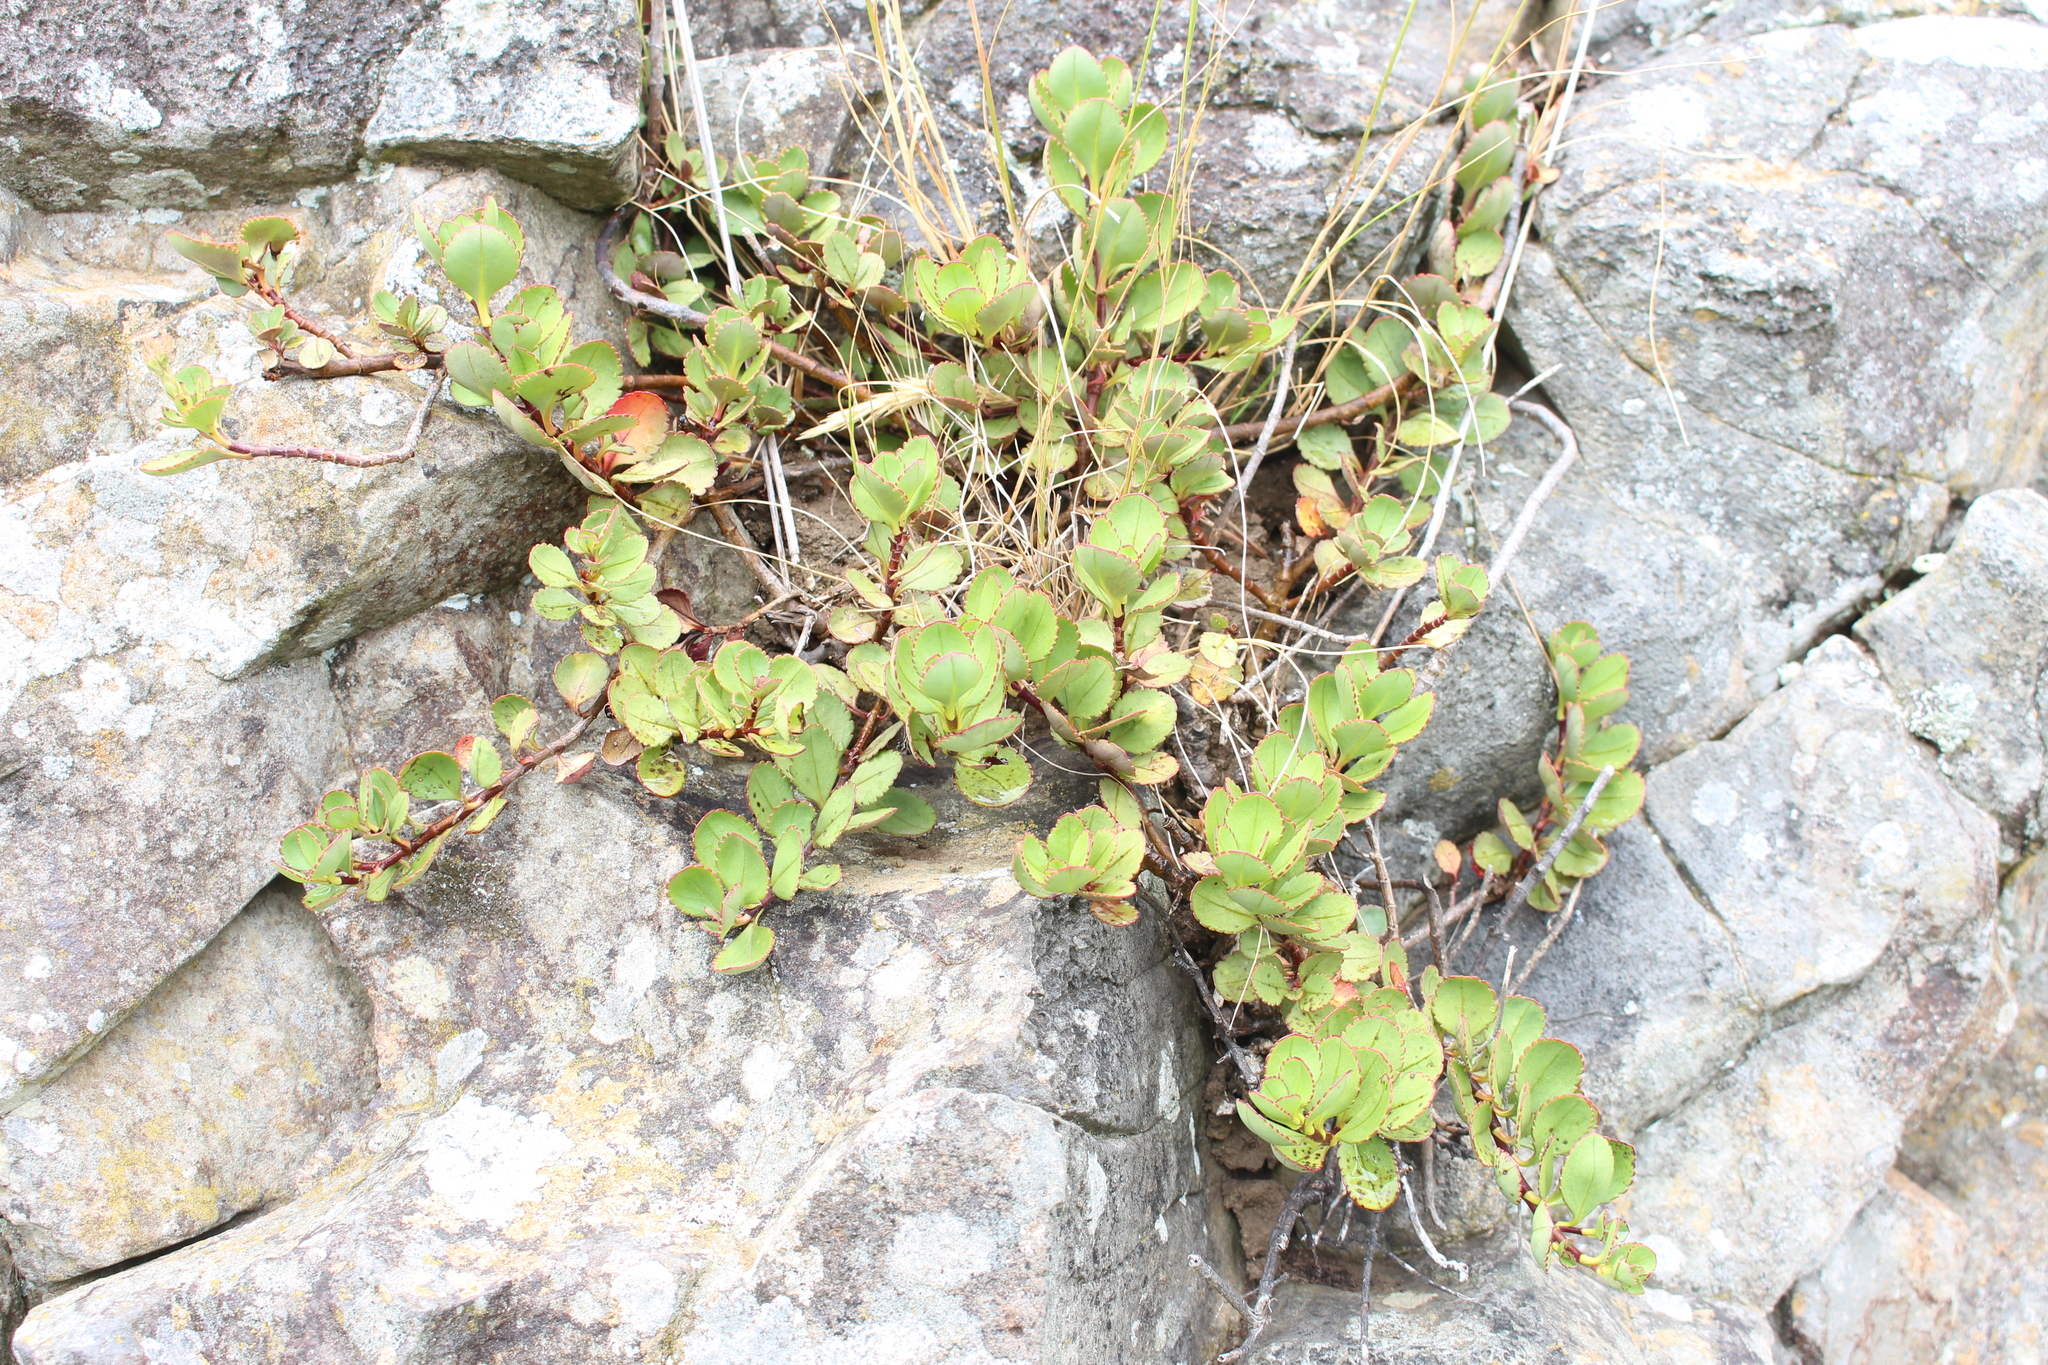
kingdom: Plantae
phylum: Tracheophyta
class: Magnoliopsida
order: Lamiales
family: Plantaginaceae
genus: Veronica
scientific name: Veronica lavaudiana
